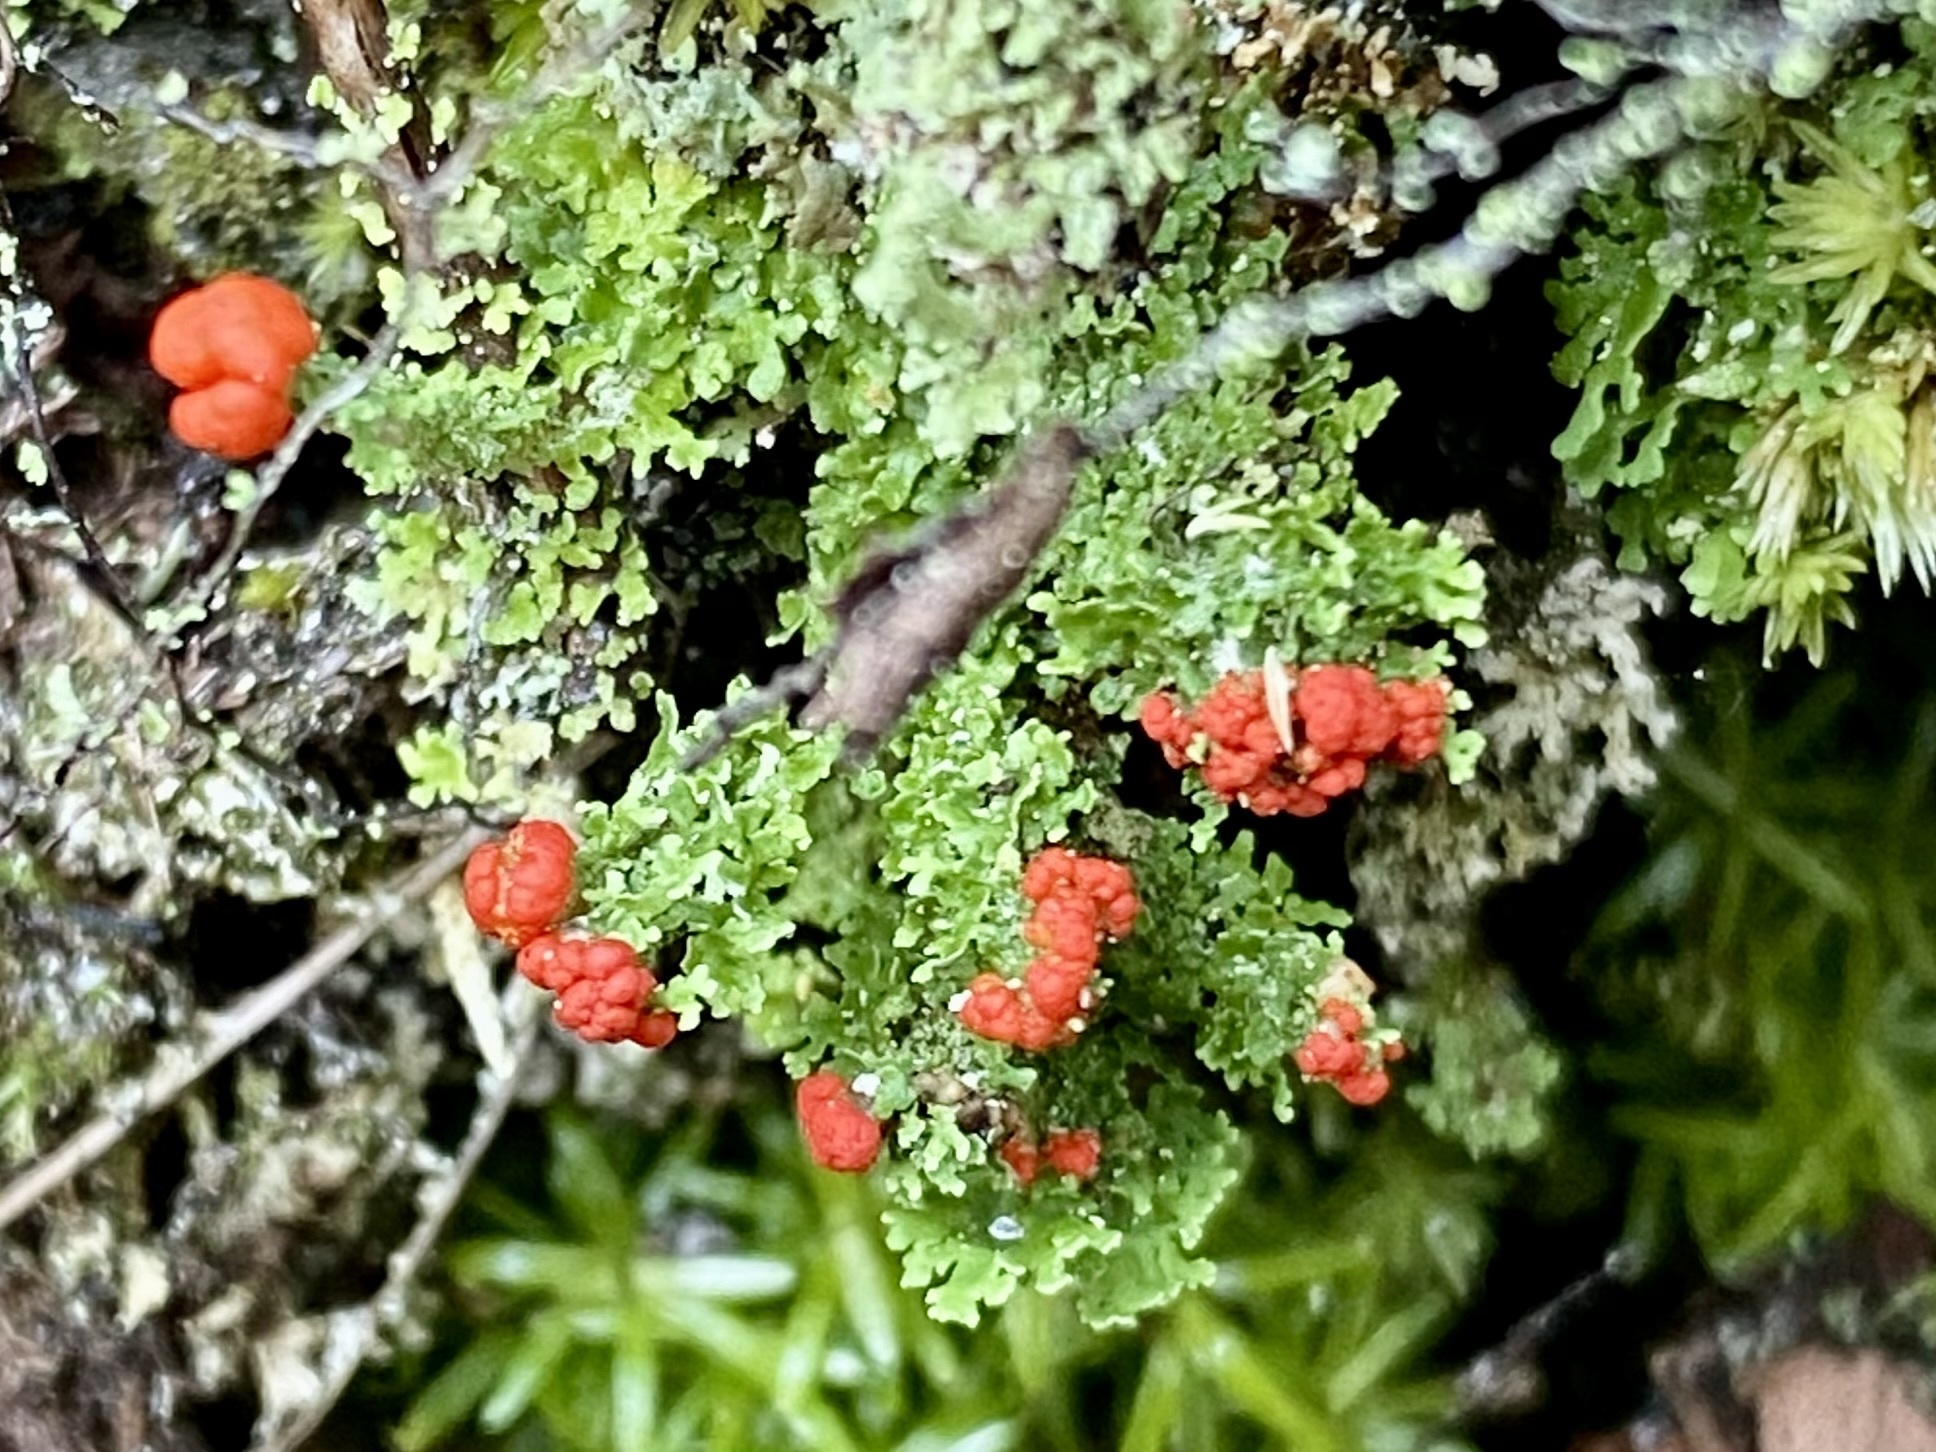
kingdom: Fungi
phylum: Ascomycota
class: Lecanoromycetes
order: Lecanorales
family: Cladoniaceae
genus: Cladonia
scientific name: Cladonia didyma
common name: Southern soldiers
